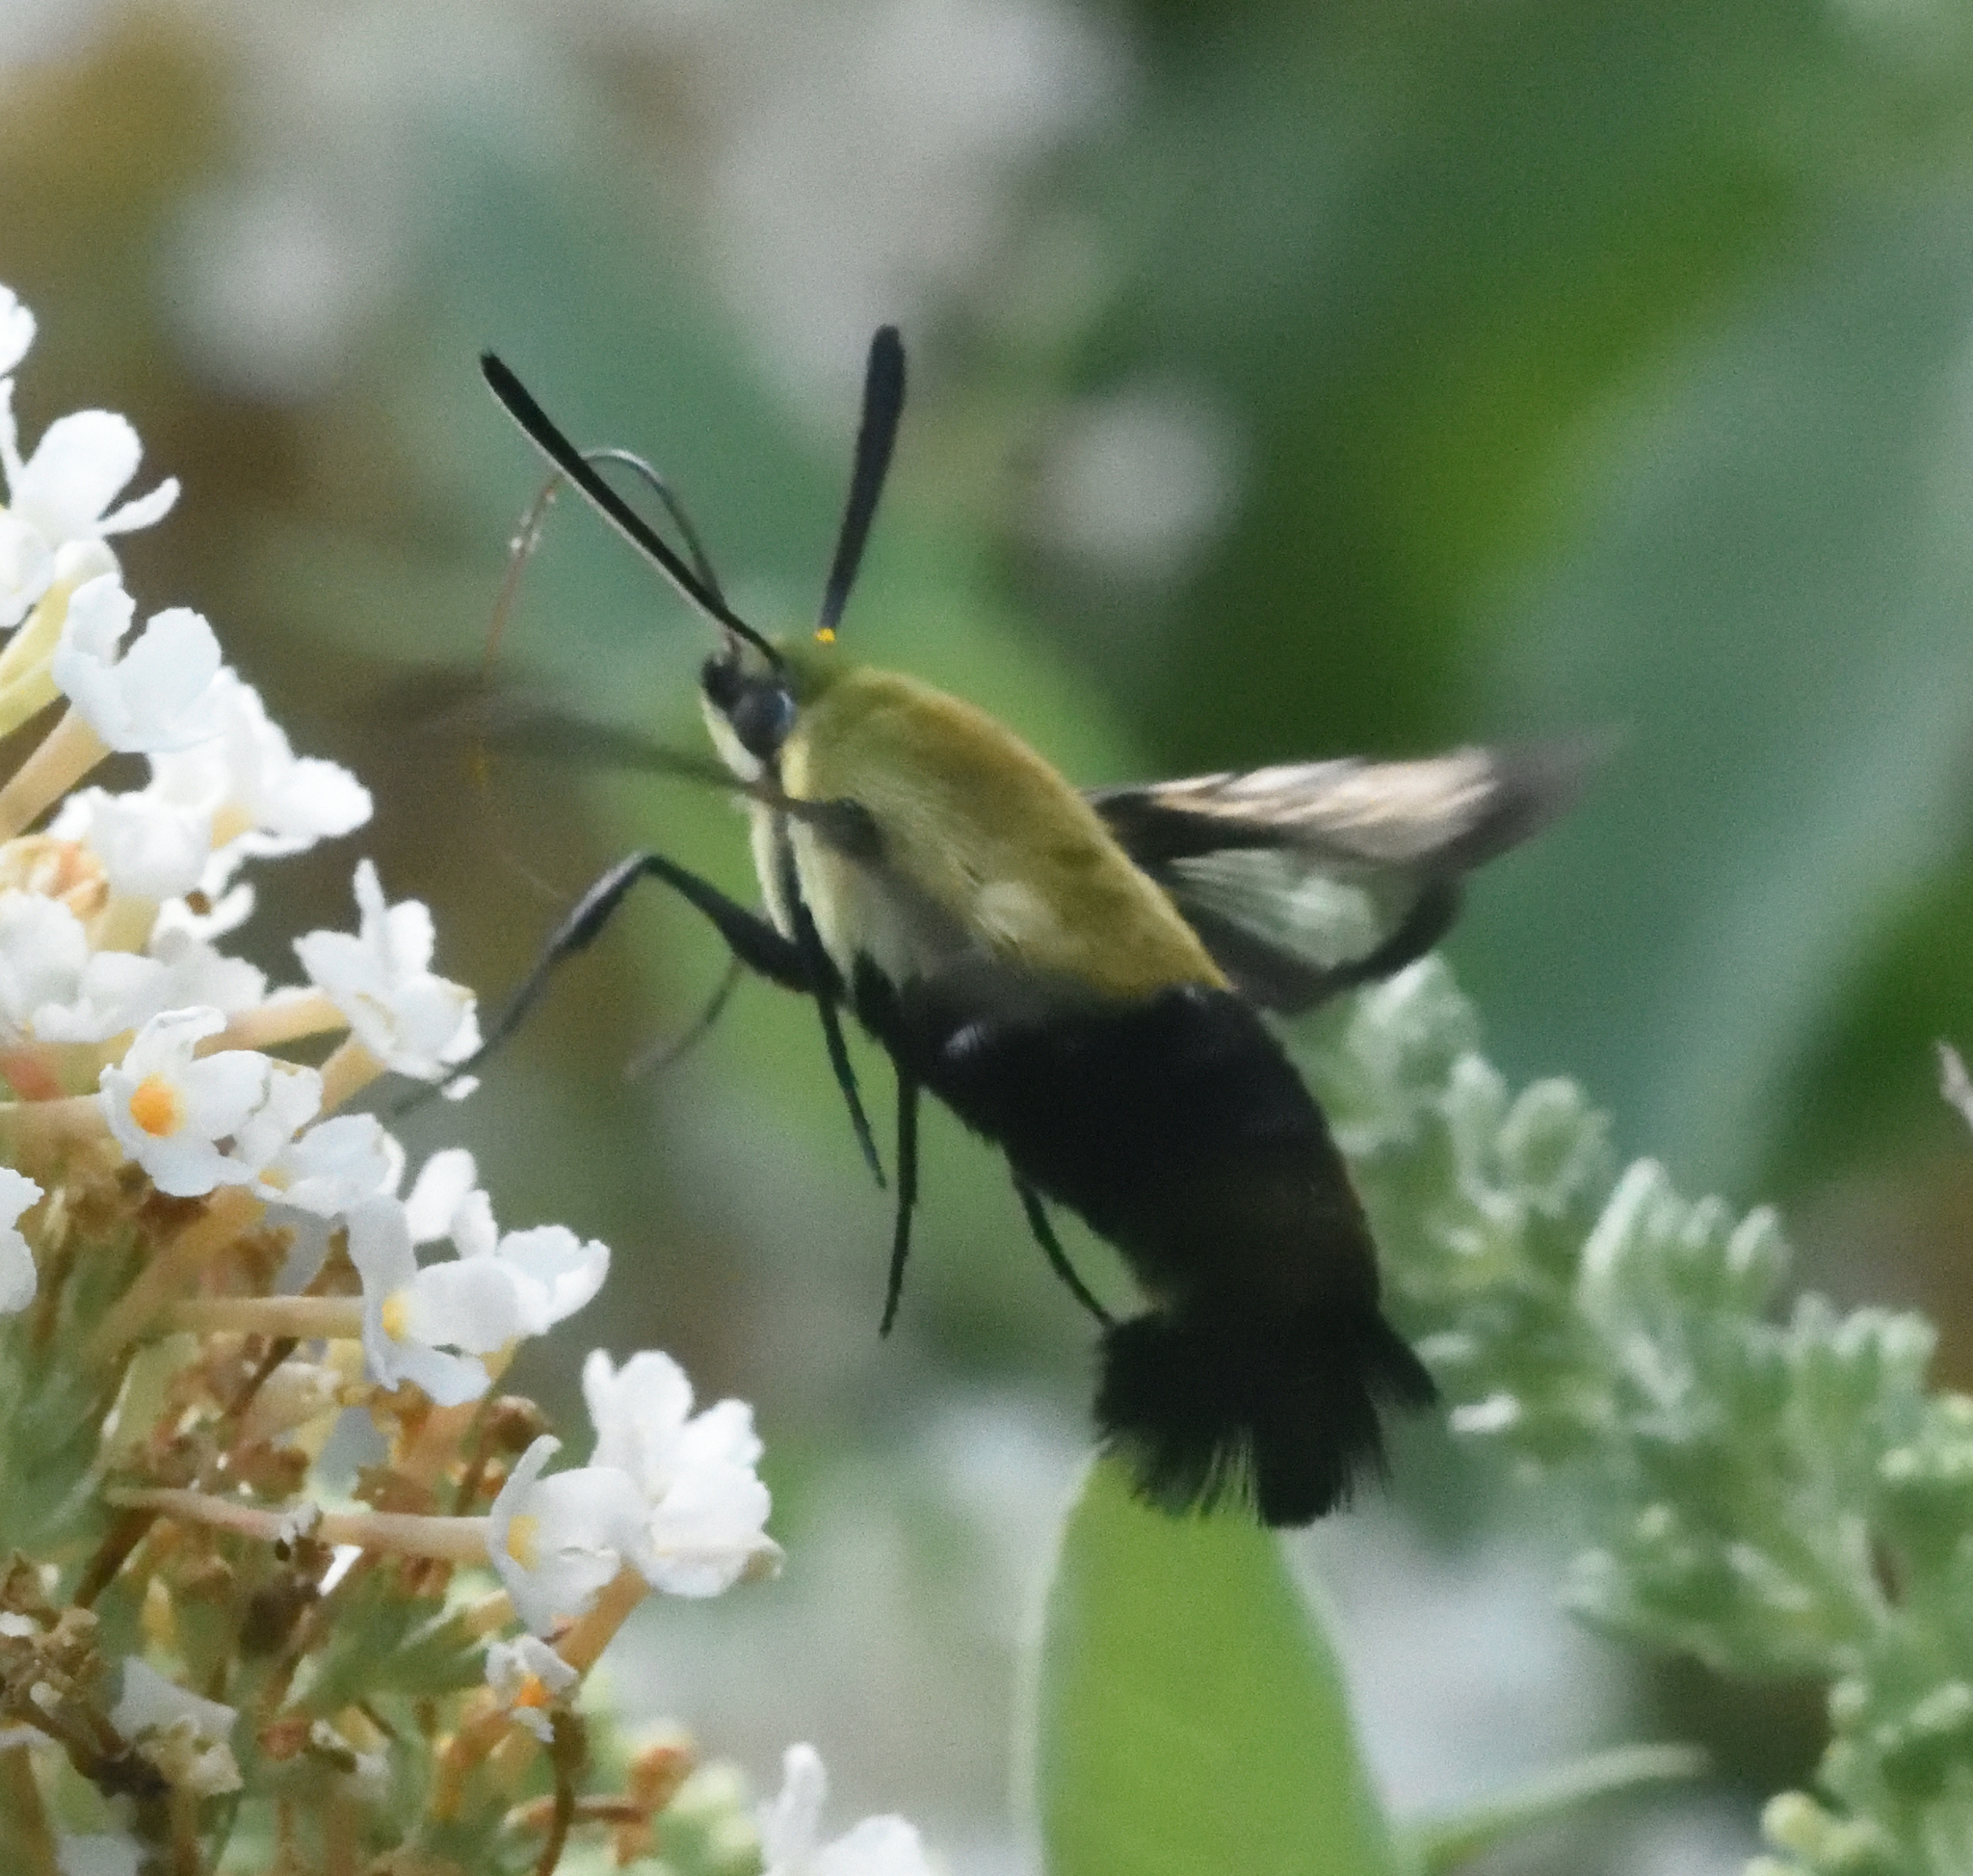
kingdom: Animalia
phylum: Arthropoda
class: Insecta
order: Lepidoptera
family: Sphingidae
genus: Hemaris
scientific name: Hemaris diffinis
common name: Bumblebee moth
